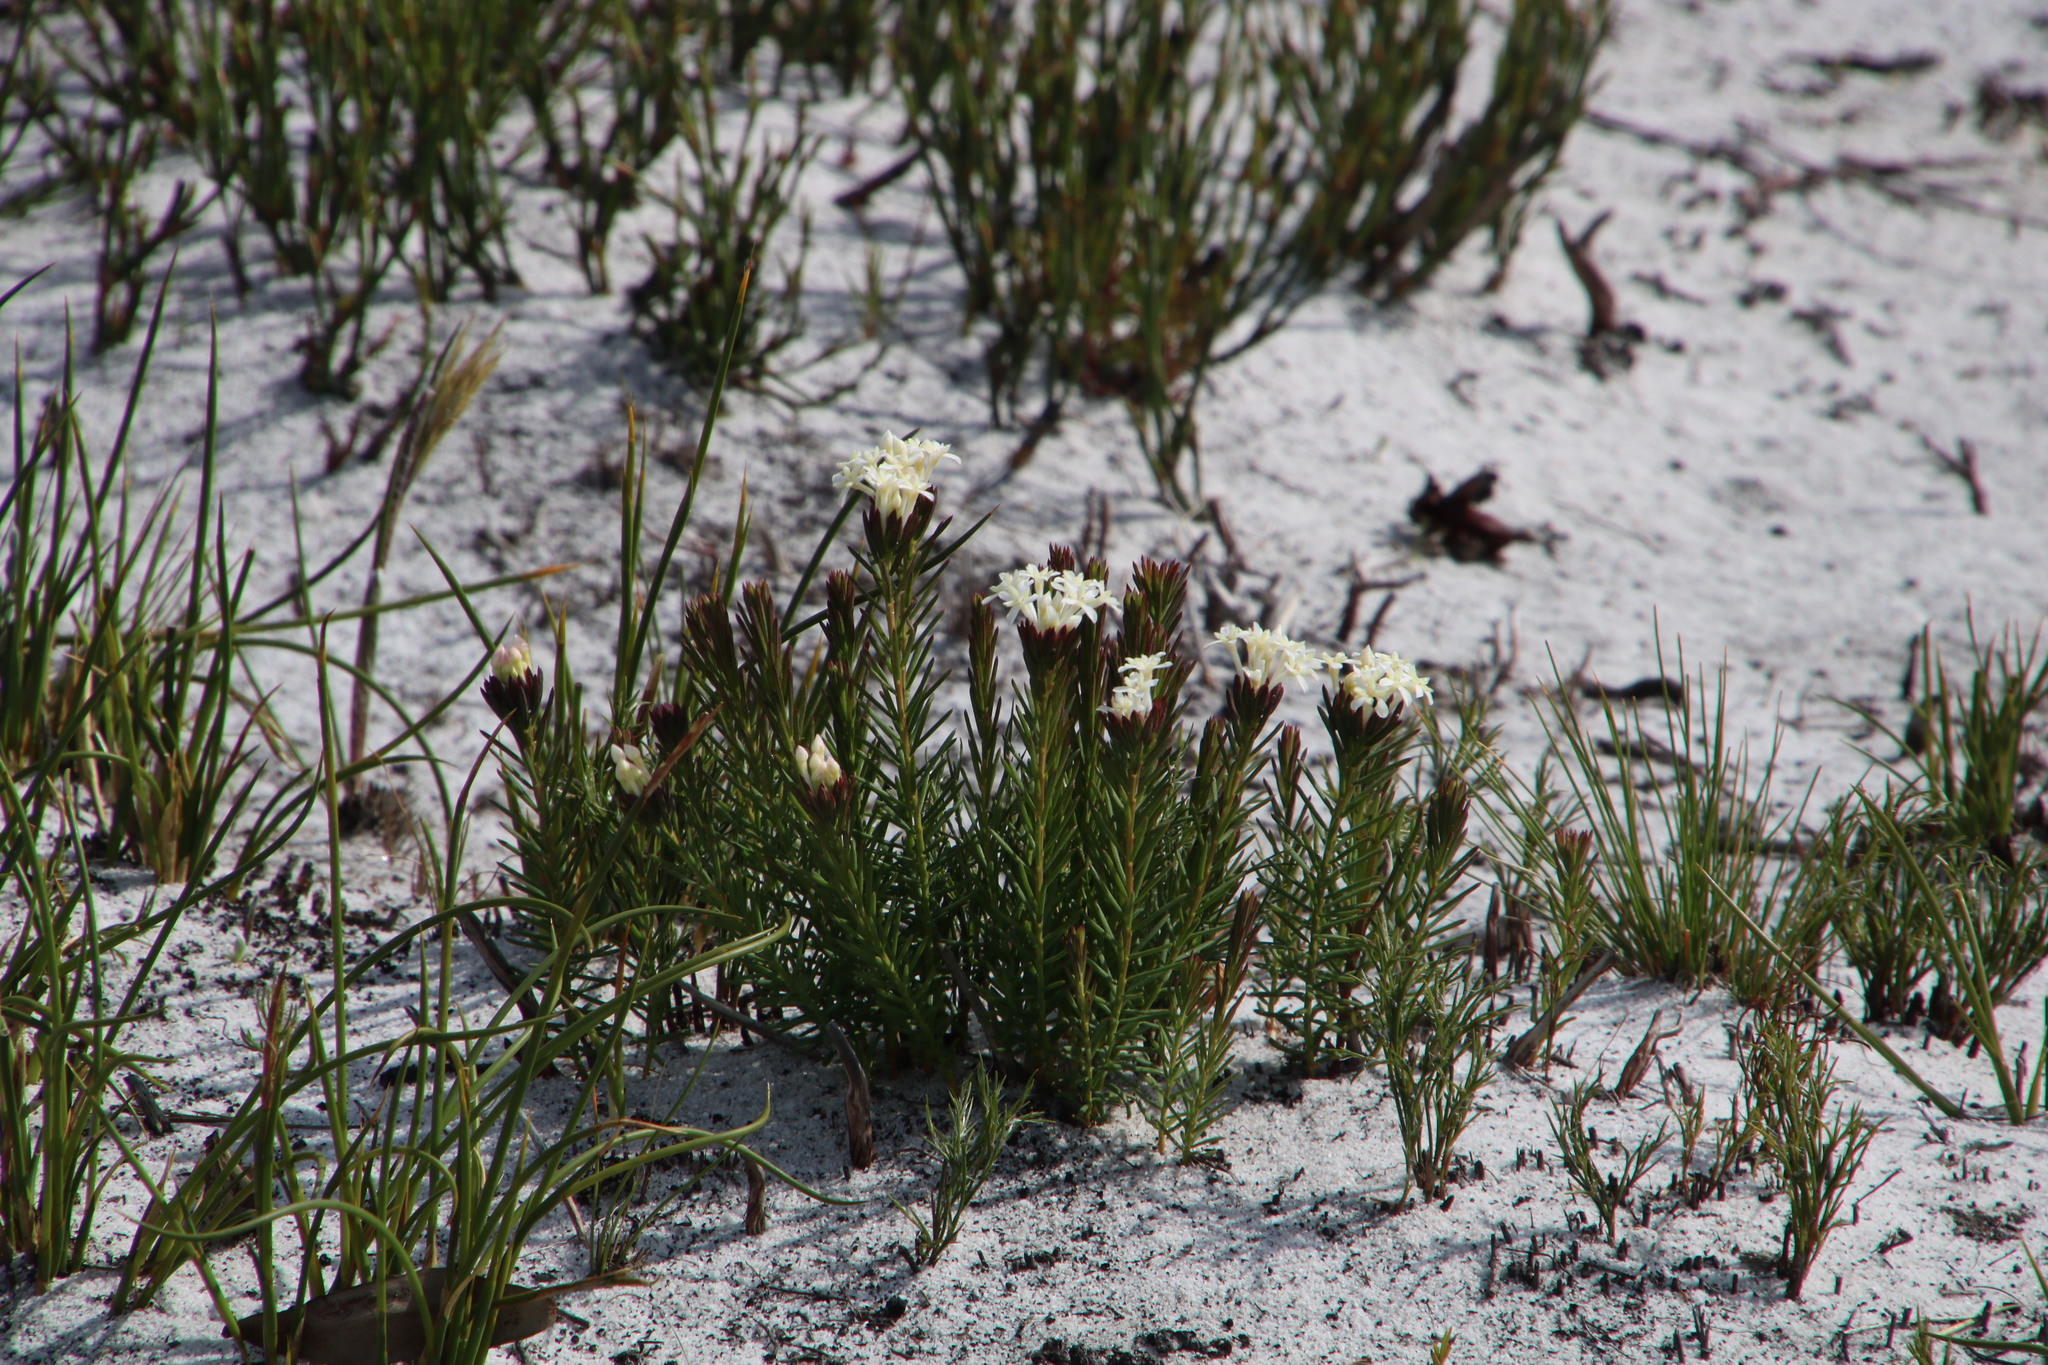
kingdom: Plantae
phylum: Tracheophyta
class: Magnoliopsida
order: Malvales
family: Thymelaeaceae
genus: Gnidia
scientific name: Gnidia pinifolia
